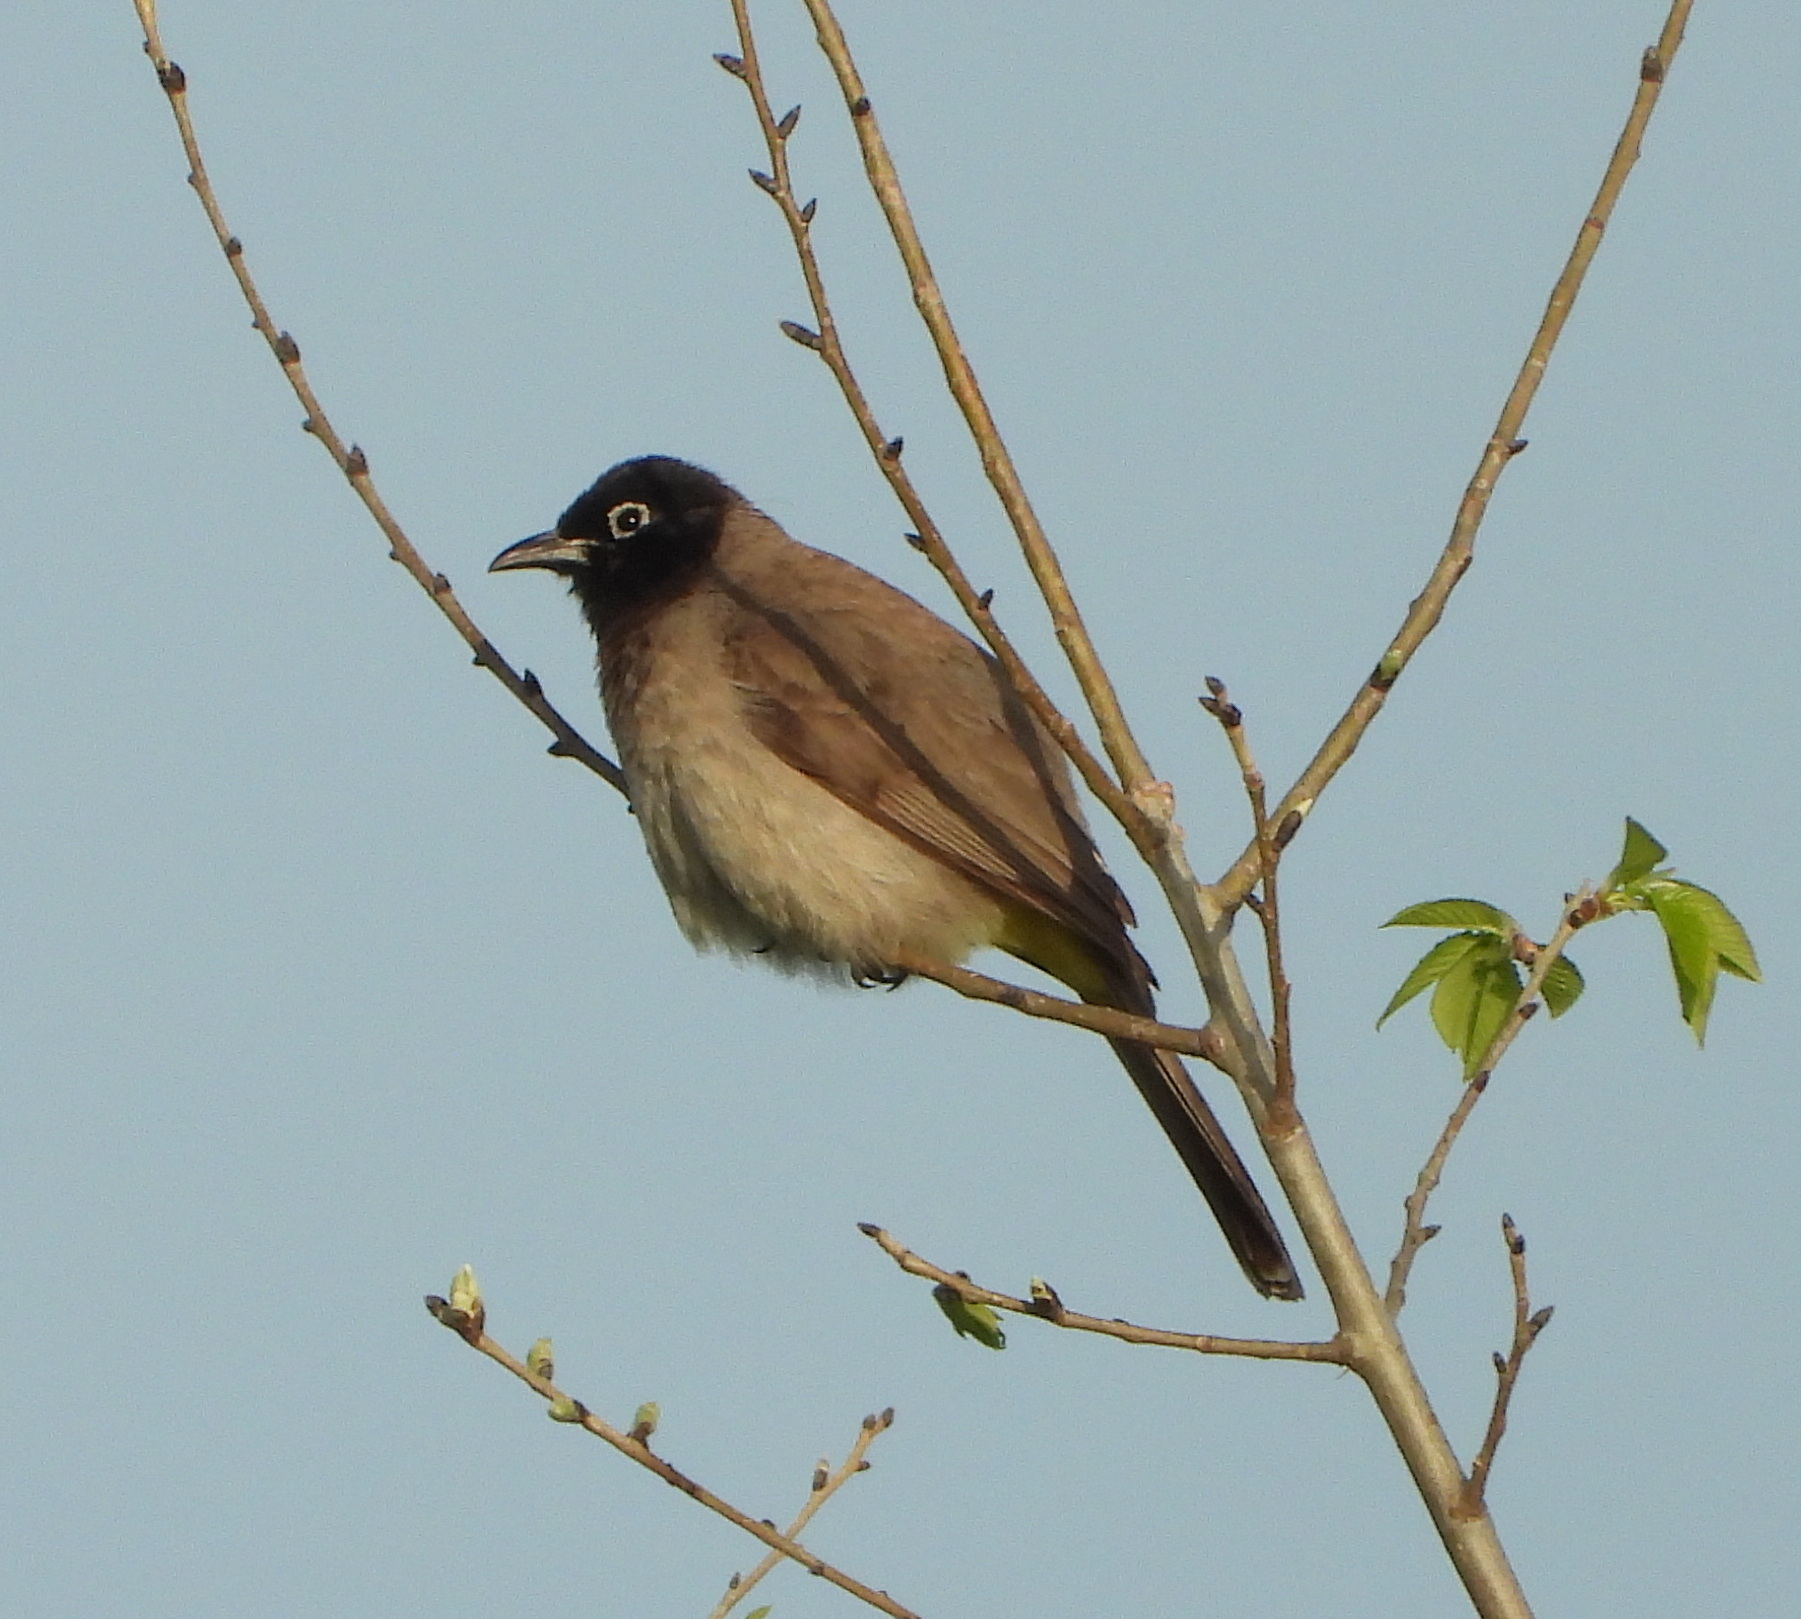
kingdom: Animalia
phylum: Chordata
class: Aves
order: Passeriformes
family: Pycnonotidae
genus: Pycnonotus
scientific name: Pycnonotus xanthopygos
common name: White-spectacled bulbul
